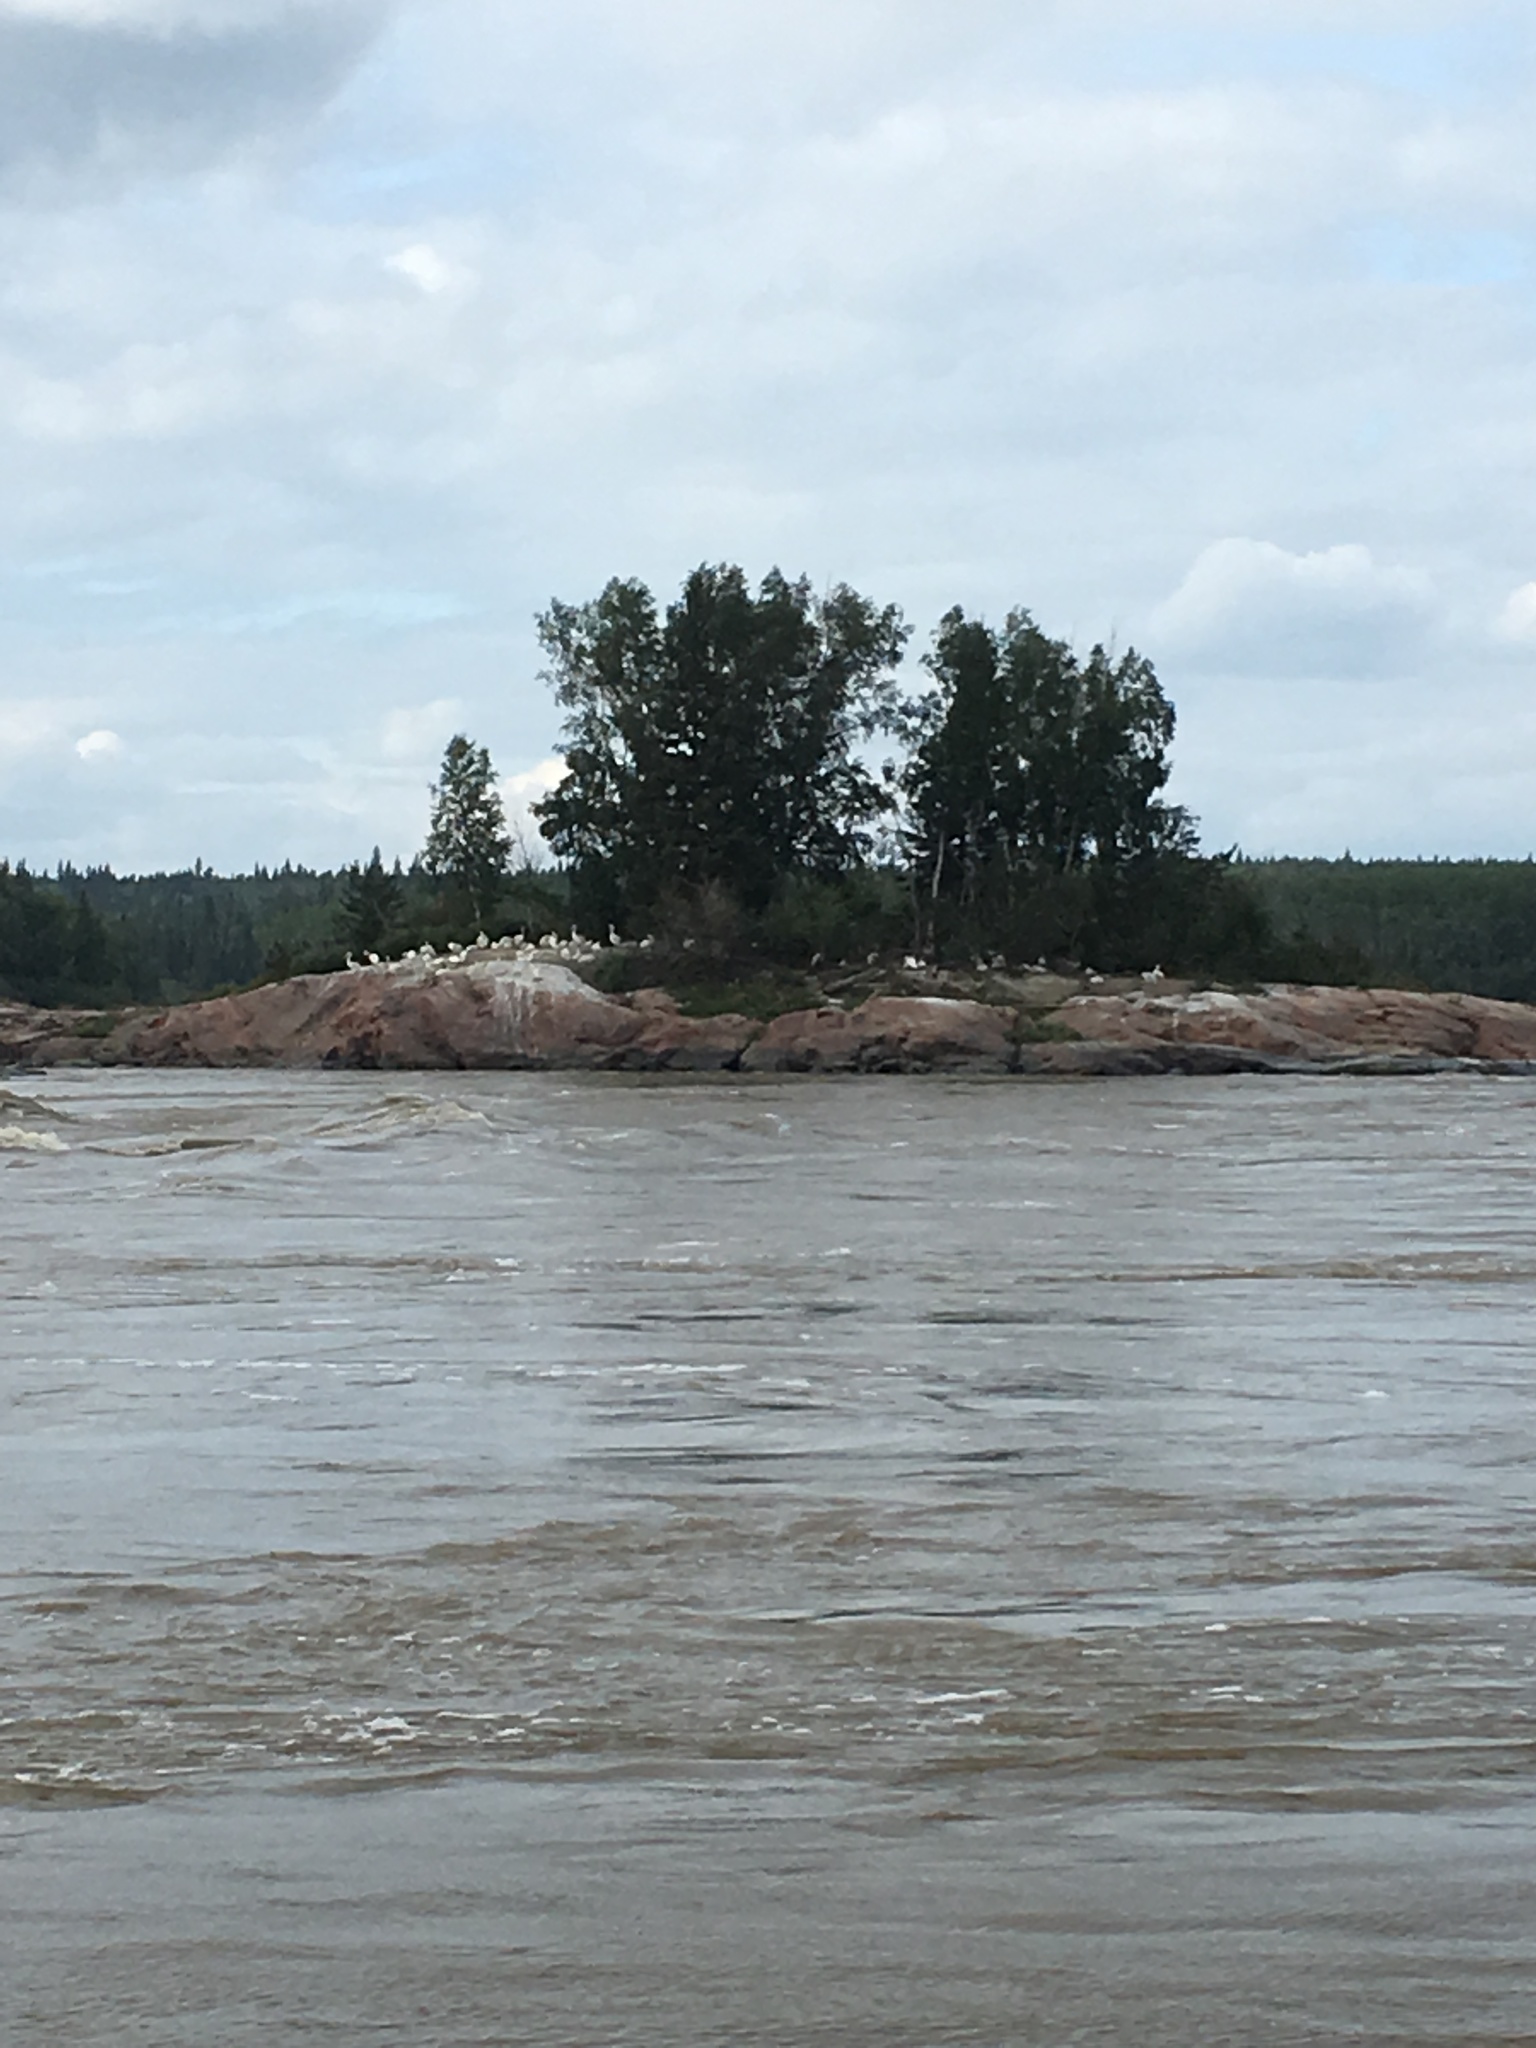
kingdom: Animalia
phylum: Chordata
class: Aves
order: Pelecaniformes
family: Pelecanidae
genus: Pelecanus
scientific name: Pelecanus erythrorhynchos
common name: American white pelican
